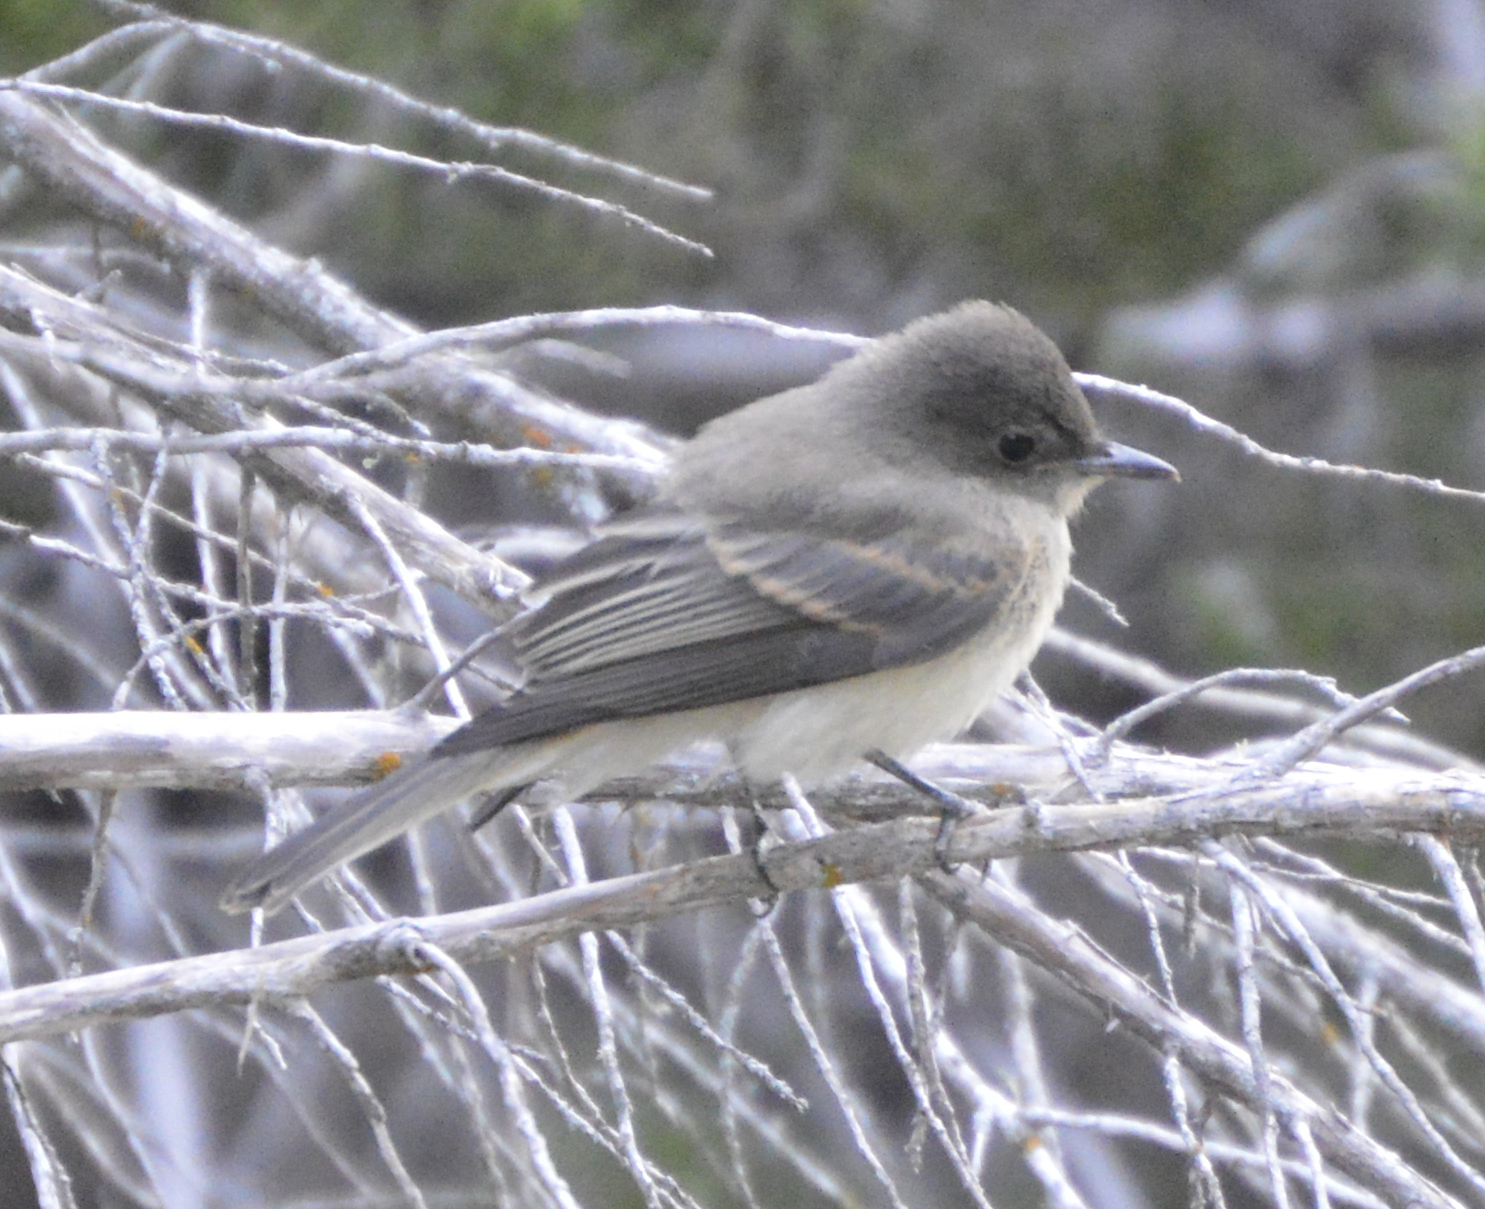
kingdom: Animalia
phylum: Chordata
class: Aves
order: Passeriformes
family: Tyrannidae
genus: Sayornis
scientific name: Sayornis phoebe
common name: Eastern phoebe
